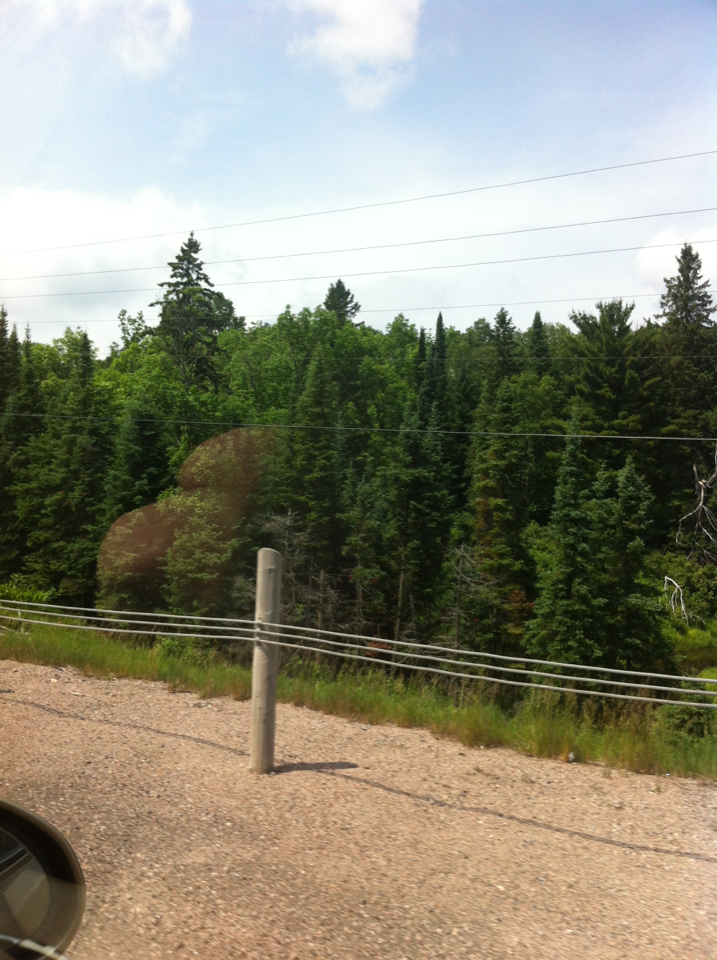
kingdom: Plantae
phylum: Tracheophyta
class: Pinopsida
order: Pinales
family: Pinaceae
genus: Abies
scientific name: Abies balsamea
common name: Balsam fir
